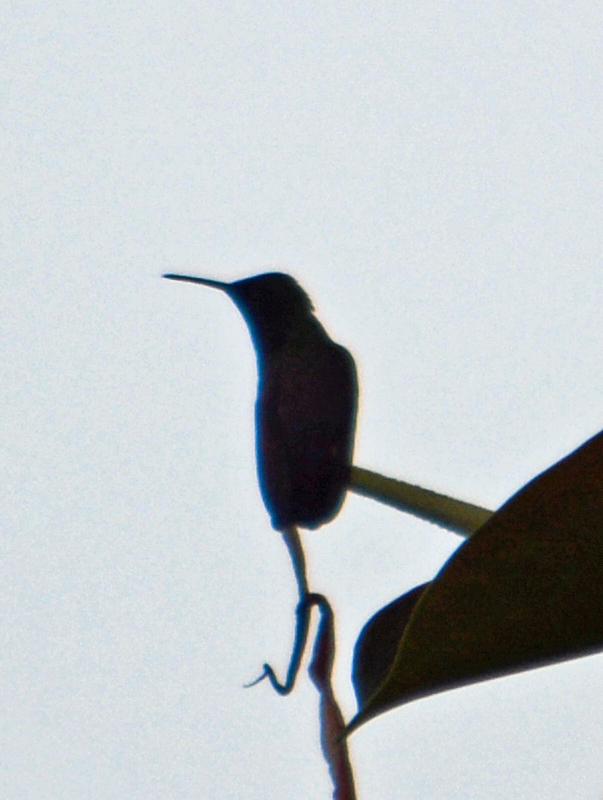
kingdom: Animalia
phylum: Chordata
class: Aves
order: Apodiformes
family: Trochilidae
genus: Saucerottia
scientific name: Saucerottia beryllina
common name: Berylline hummingbird
